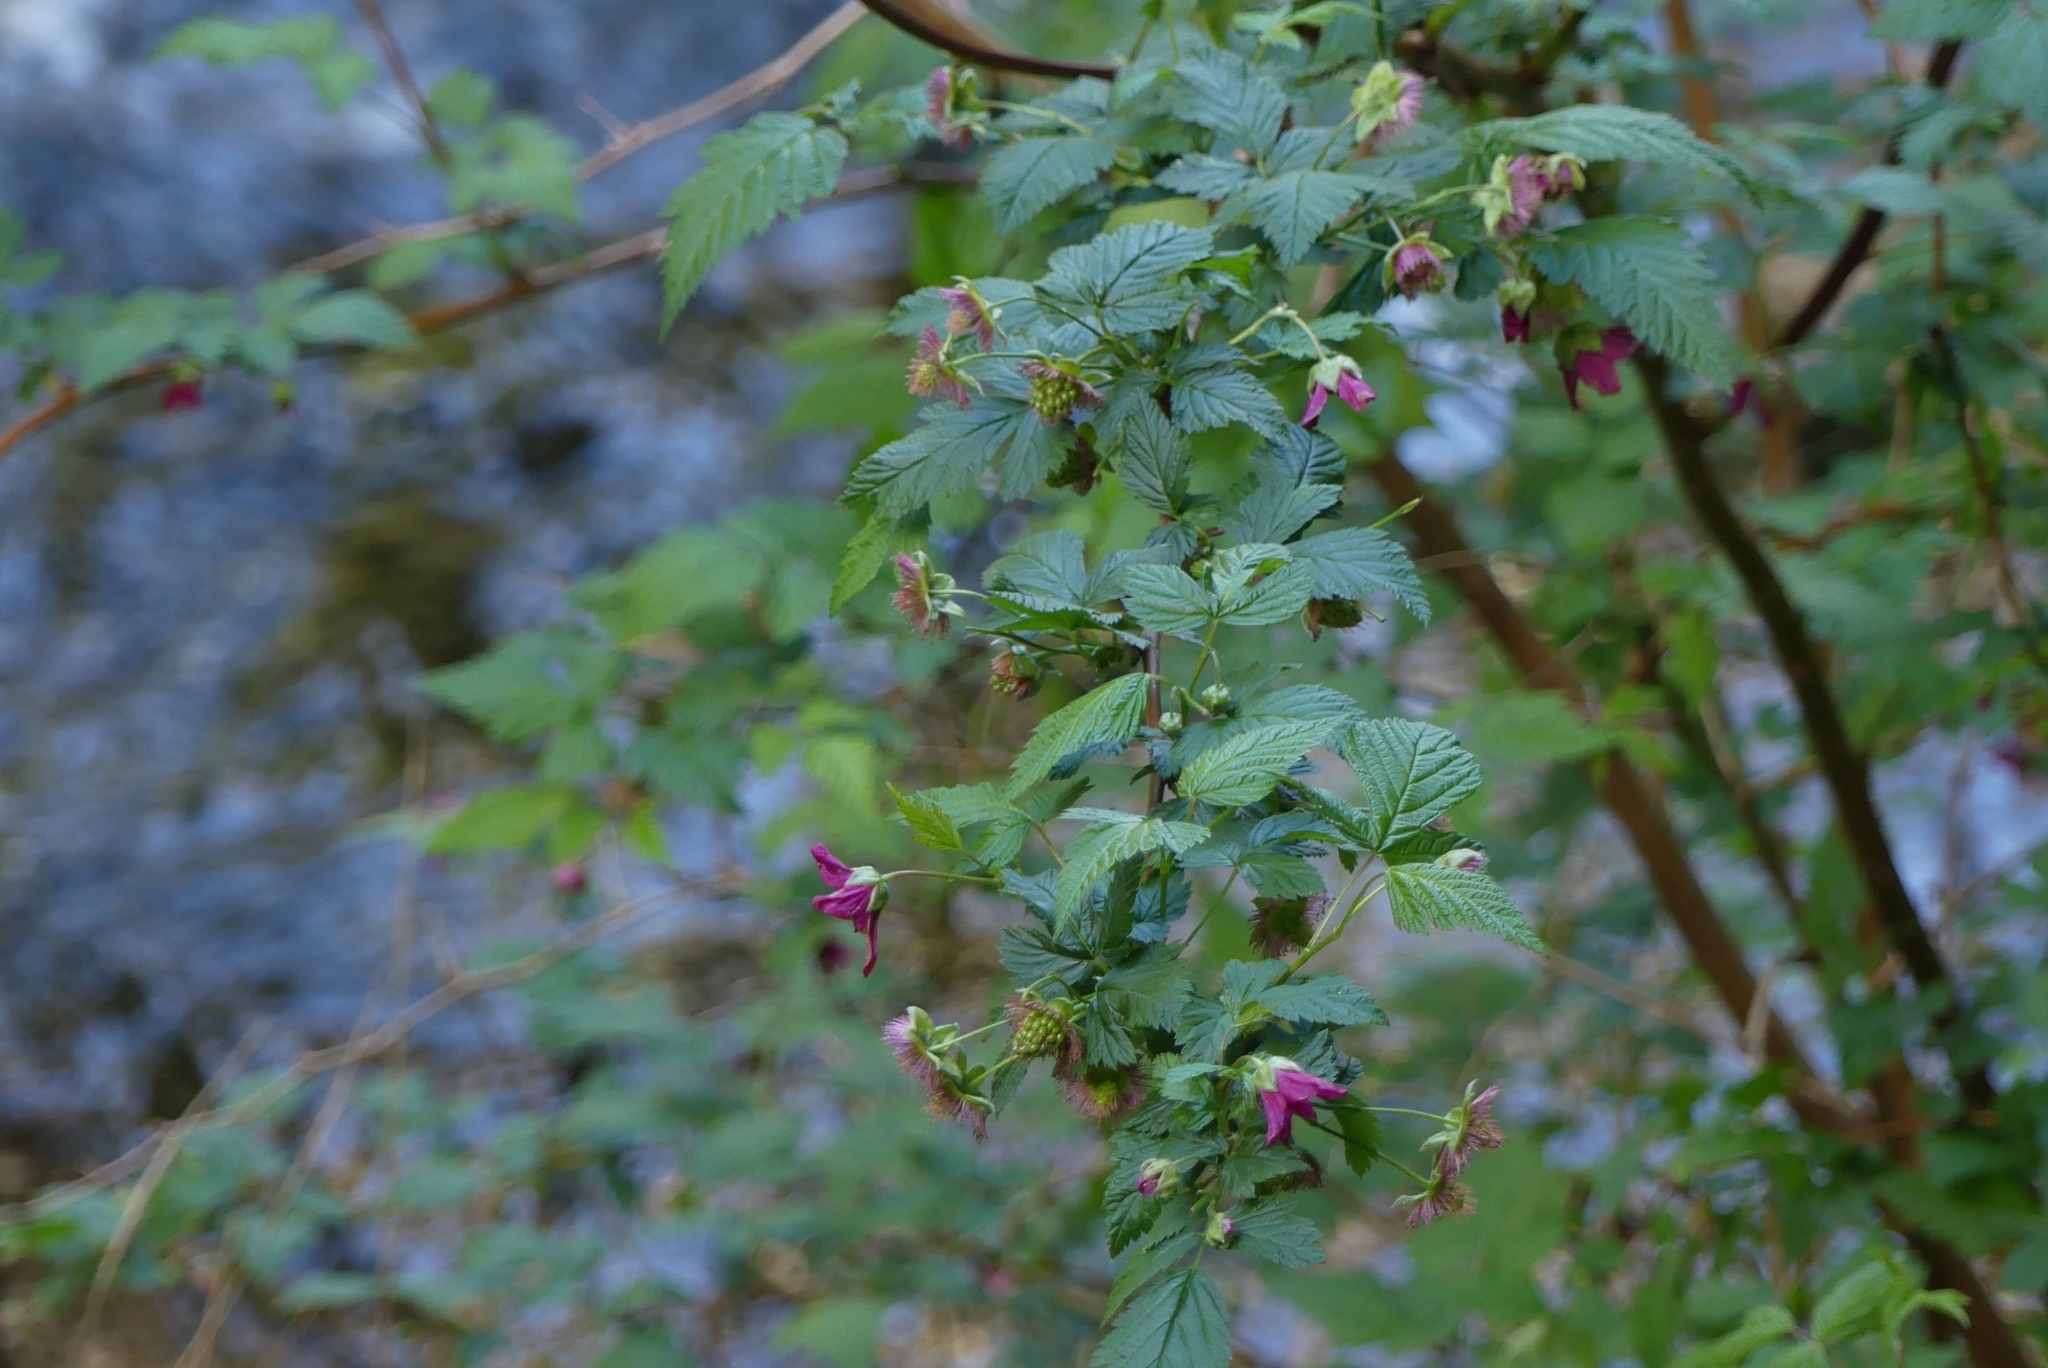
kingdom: Plantae
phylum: Tracheophyta
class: Magnoliopsida
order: Rosales
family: Rosaceae
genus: Rubus
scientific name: Rubus spectabilis
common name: Salmonberry
